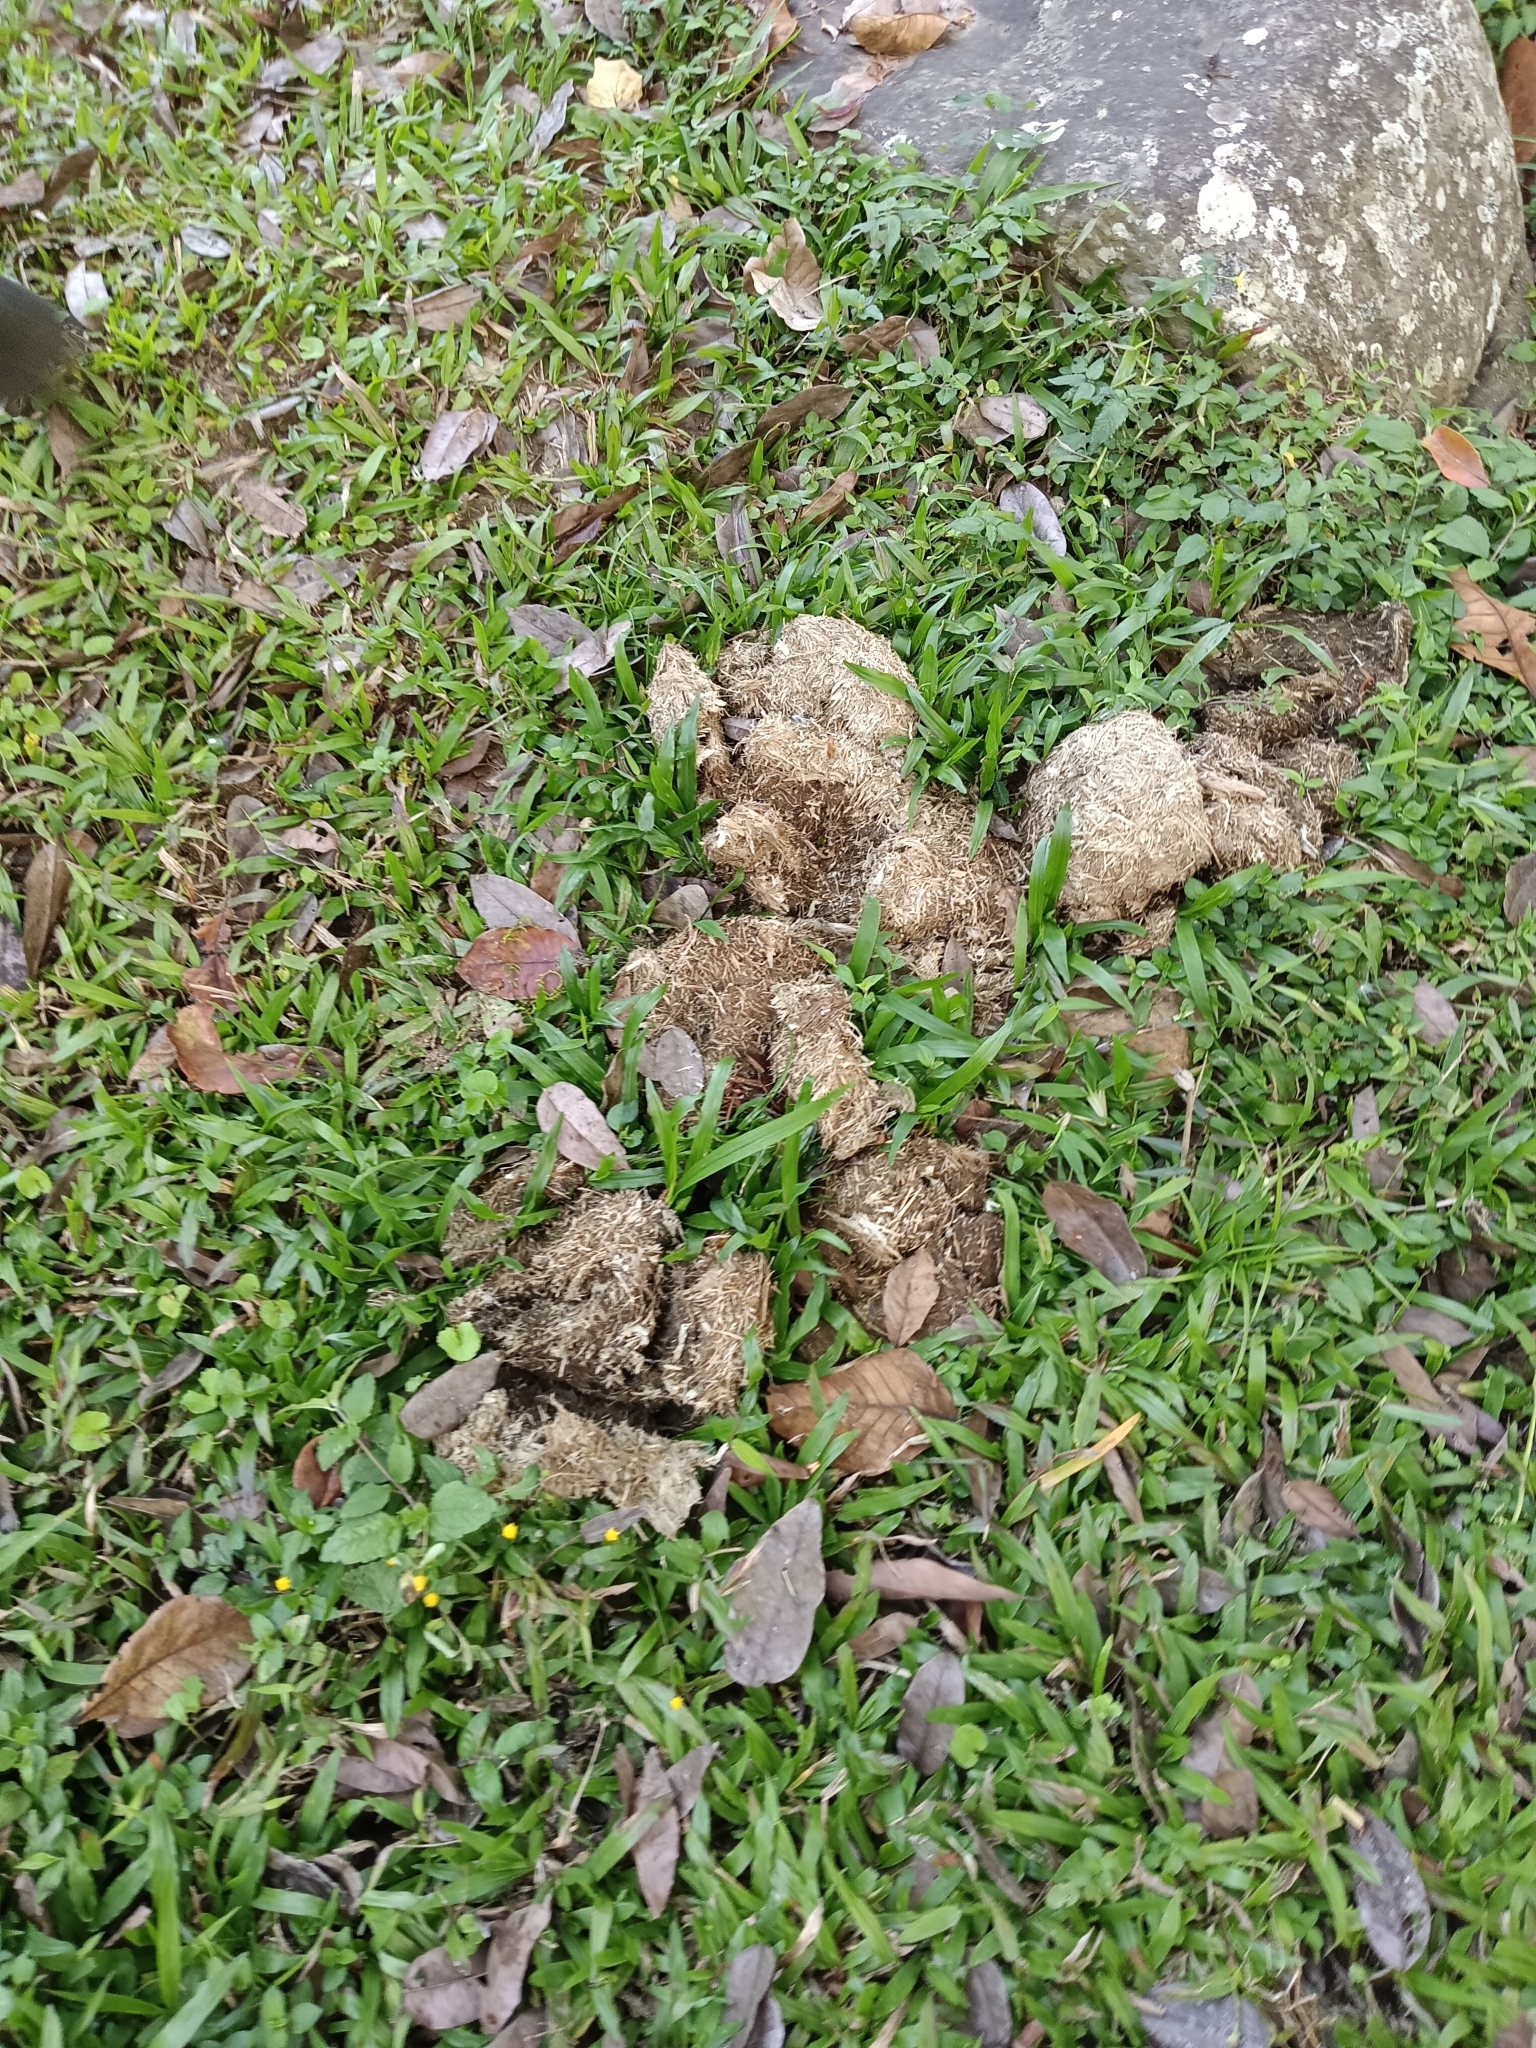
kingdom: Animalia
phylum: Chordata
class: Mammalia
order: Proboscidea
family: Elephantidae
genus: Elephas
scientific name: Elephas maximus
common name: Asian elephant
